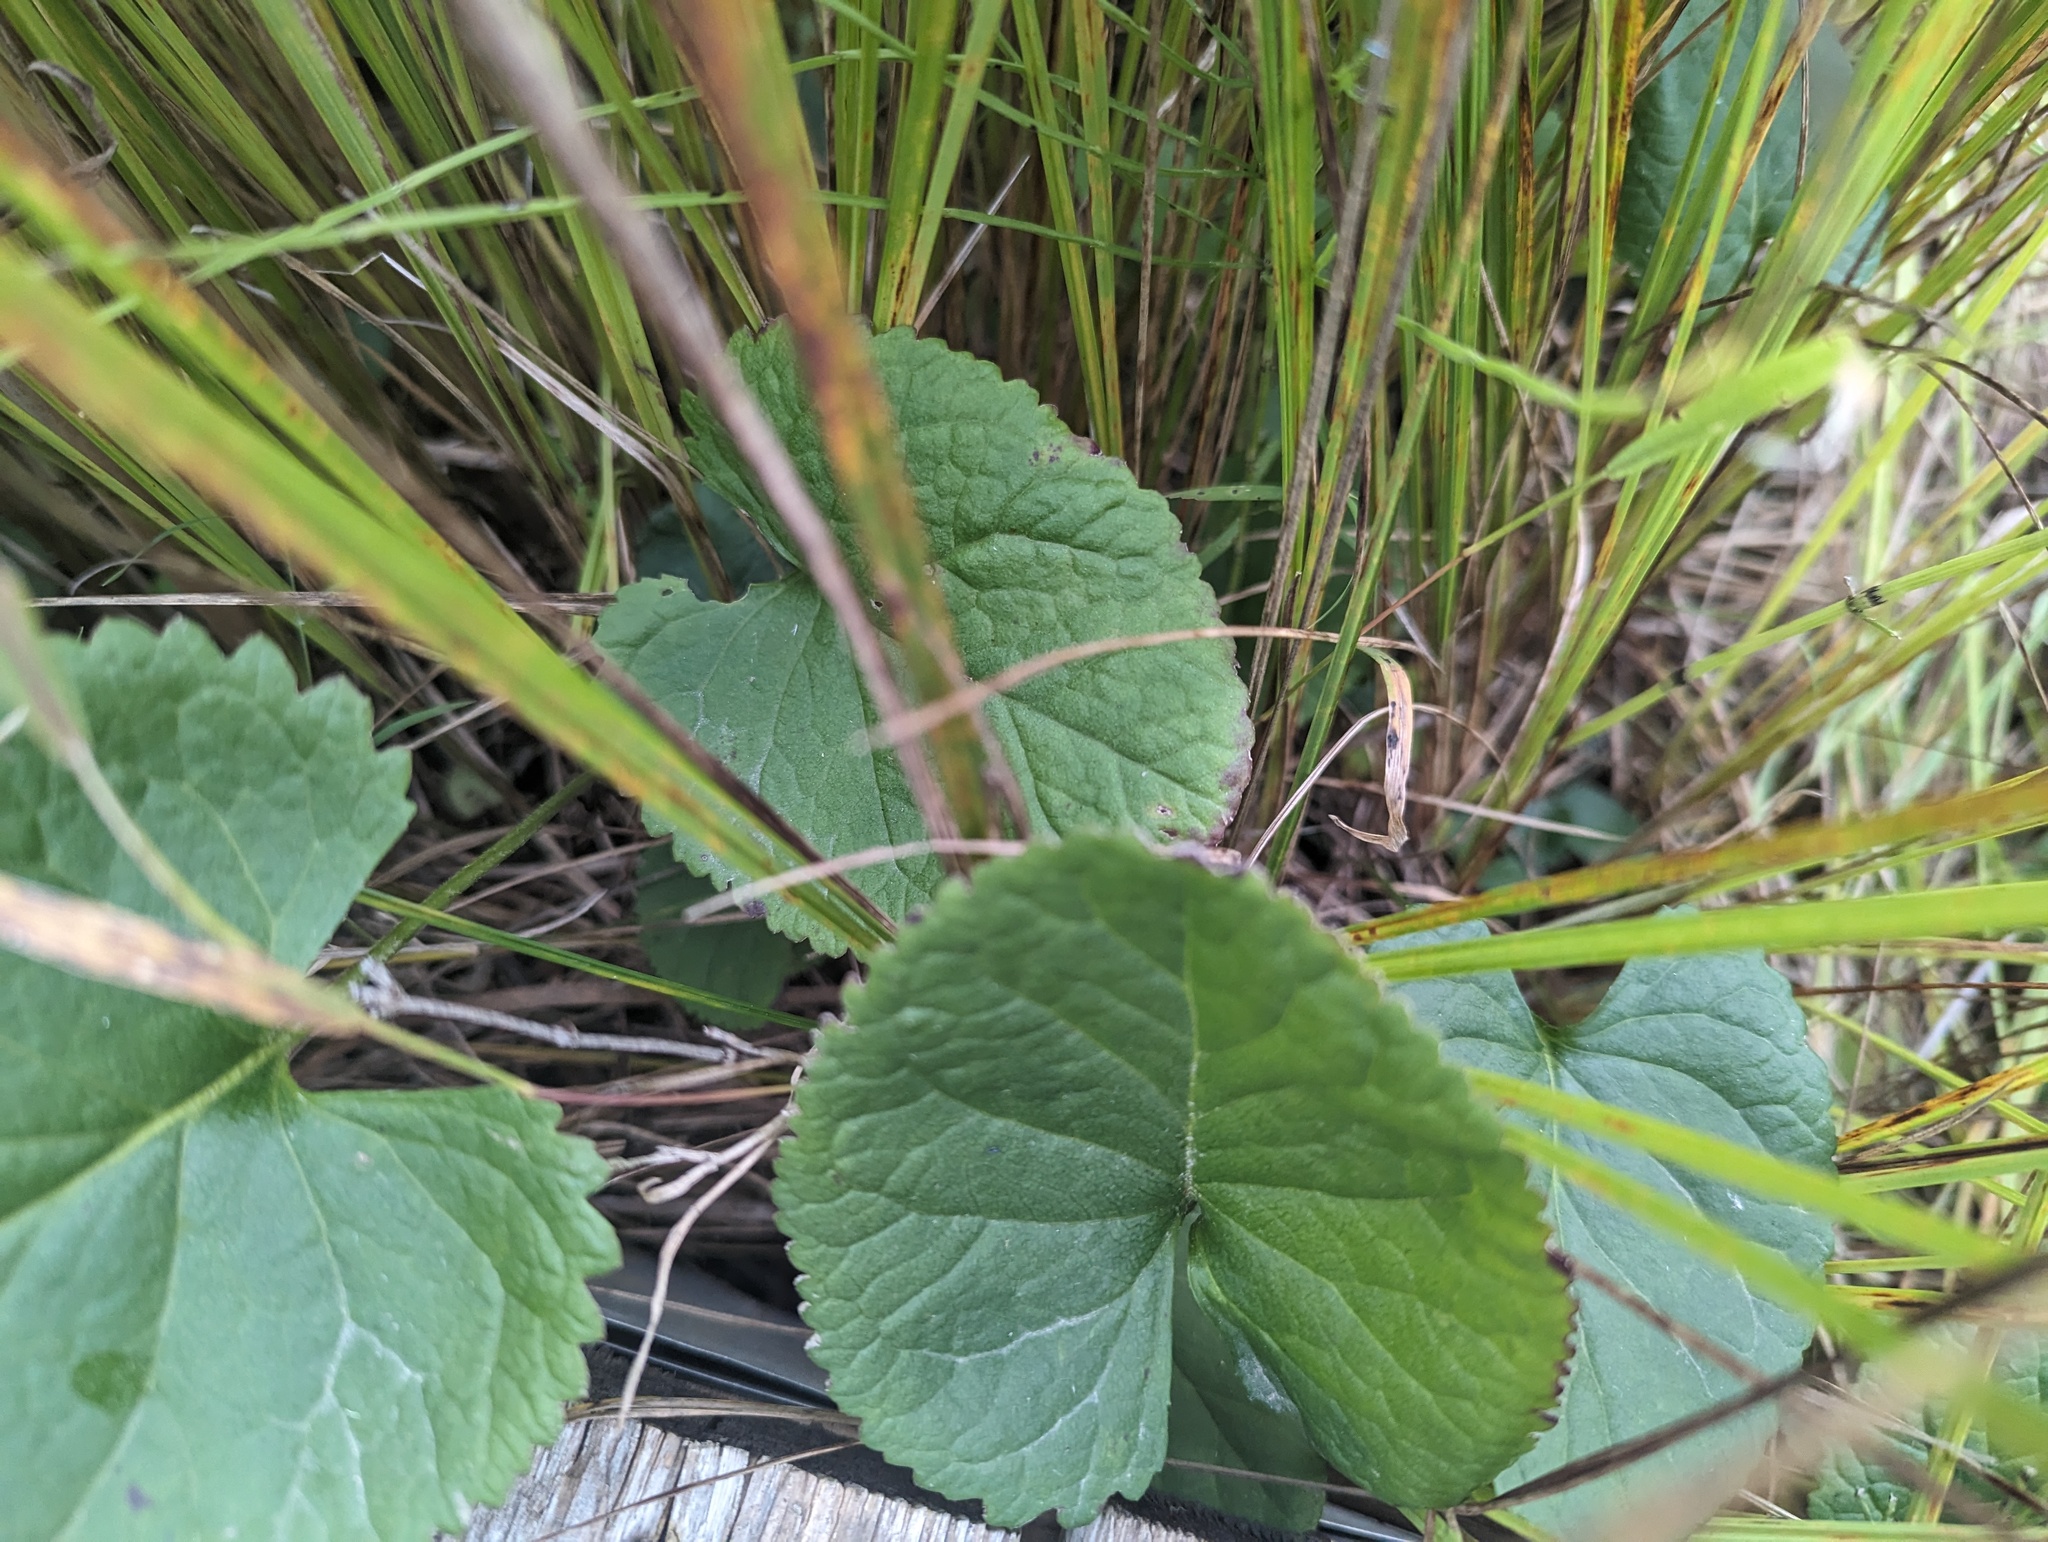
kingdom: Plantae
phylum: Tracheophyta
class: Magnoliopsida
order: Asterales
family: Asteraceae
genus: Packera
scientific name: Packera aurea
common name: Golden groundsel
